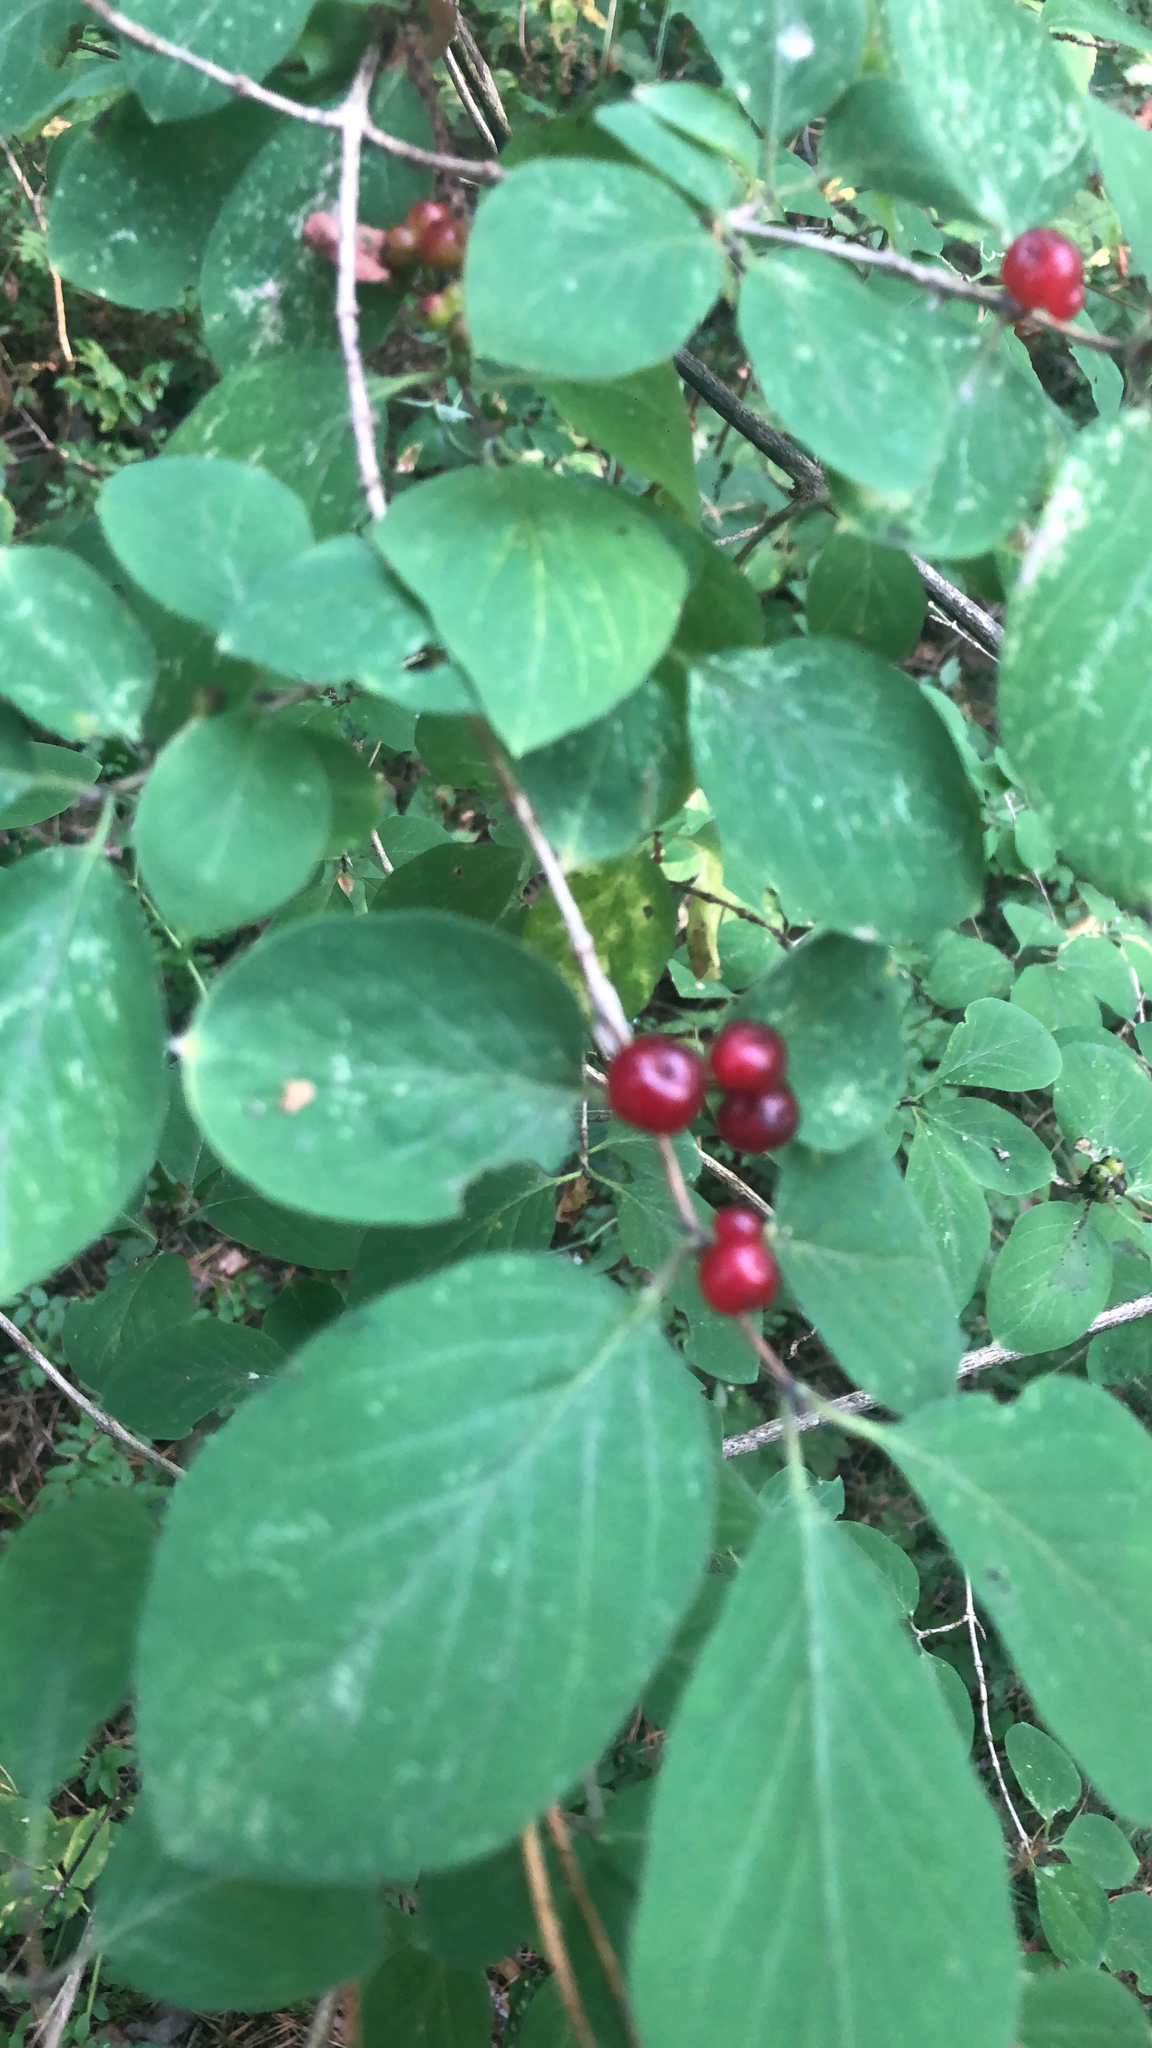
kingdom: Plantae
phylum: Tracheophyta
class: Magnoliopsida
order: Dipsacales
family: Caprifoliaceae
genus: Lonicera
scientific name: Lonicera xylosteum
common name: Fly honeysuckle
